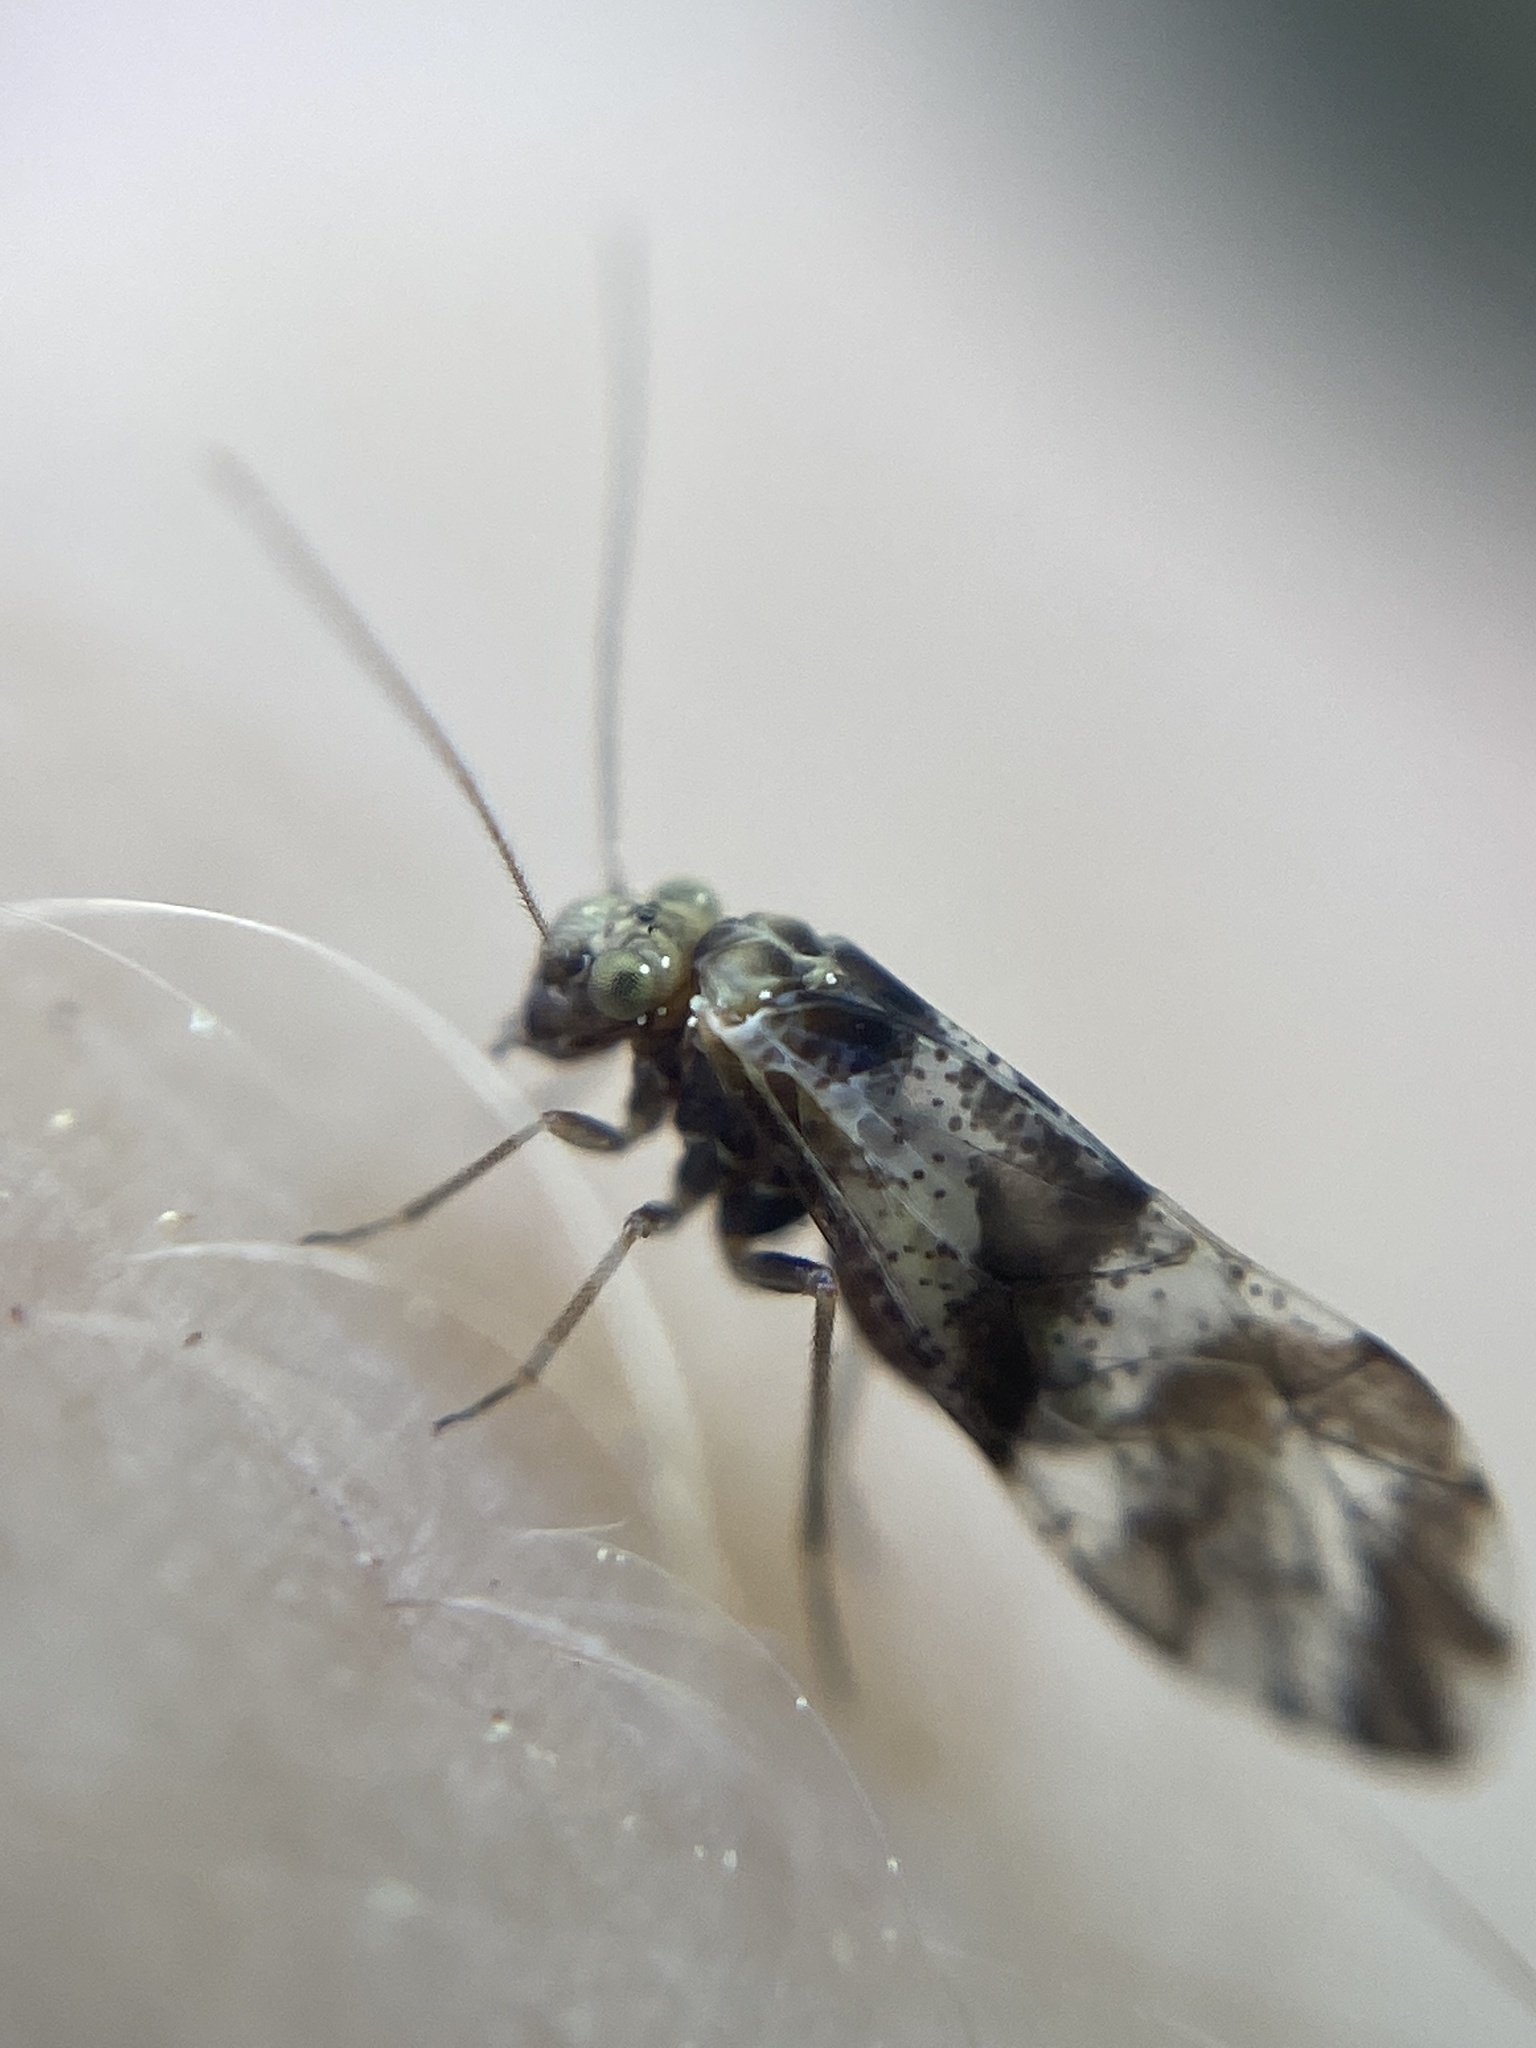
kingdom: Animalia
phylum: Arthropoda
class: Insecta
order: Psocodea
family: Psocidae
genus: Loensia
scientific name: Loensia fasciata
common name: Common bark louse
